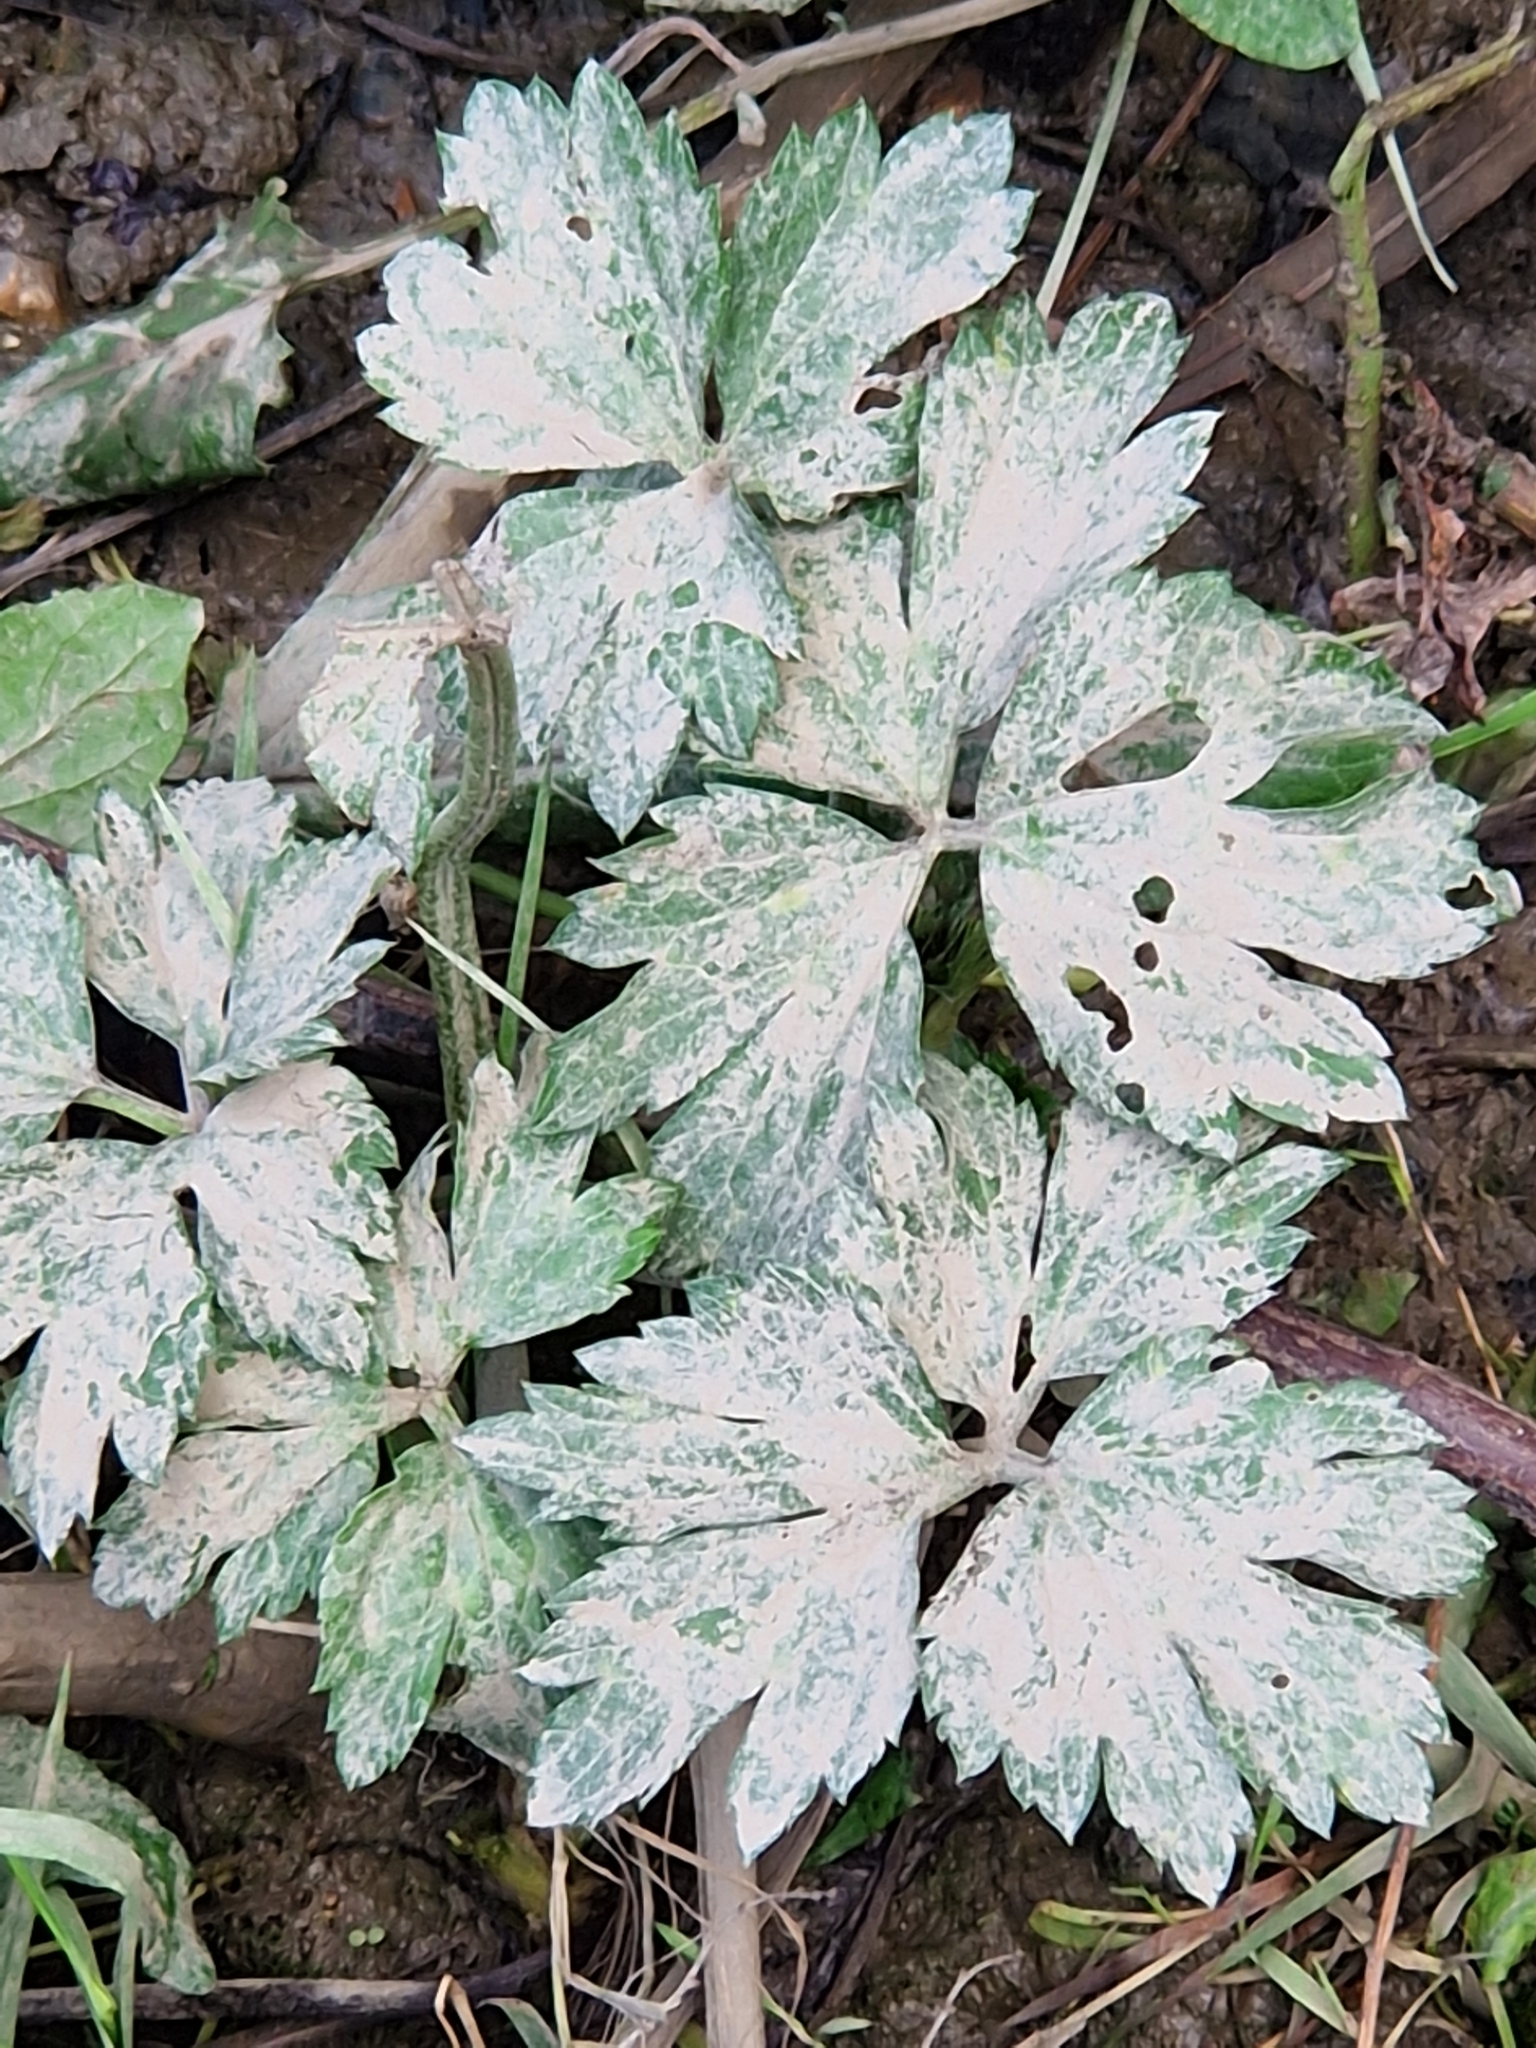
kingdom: Plantae
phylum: Tracheophyta
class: Magnoliopsida
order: Ranunculales
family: Ranunculaceae
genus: Ranunculus
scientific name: Ranunculus repens
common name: Creeping buttercup
